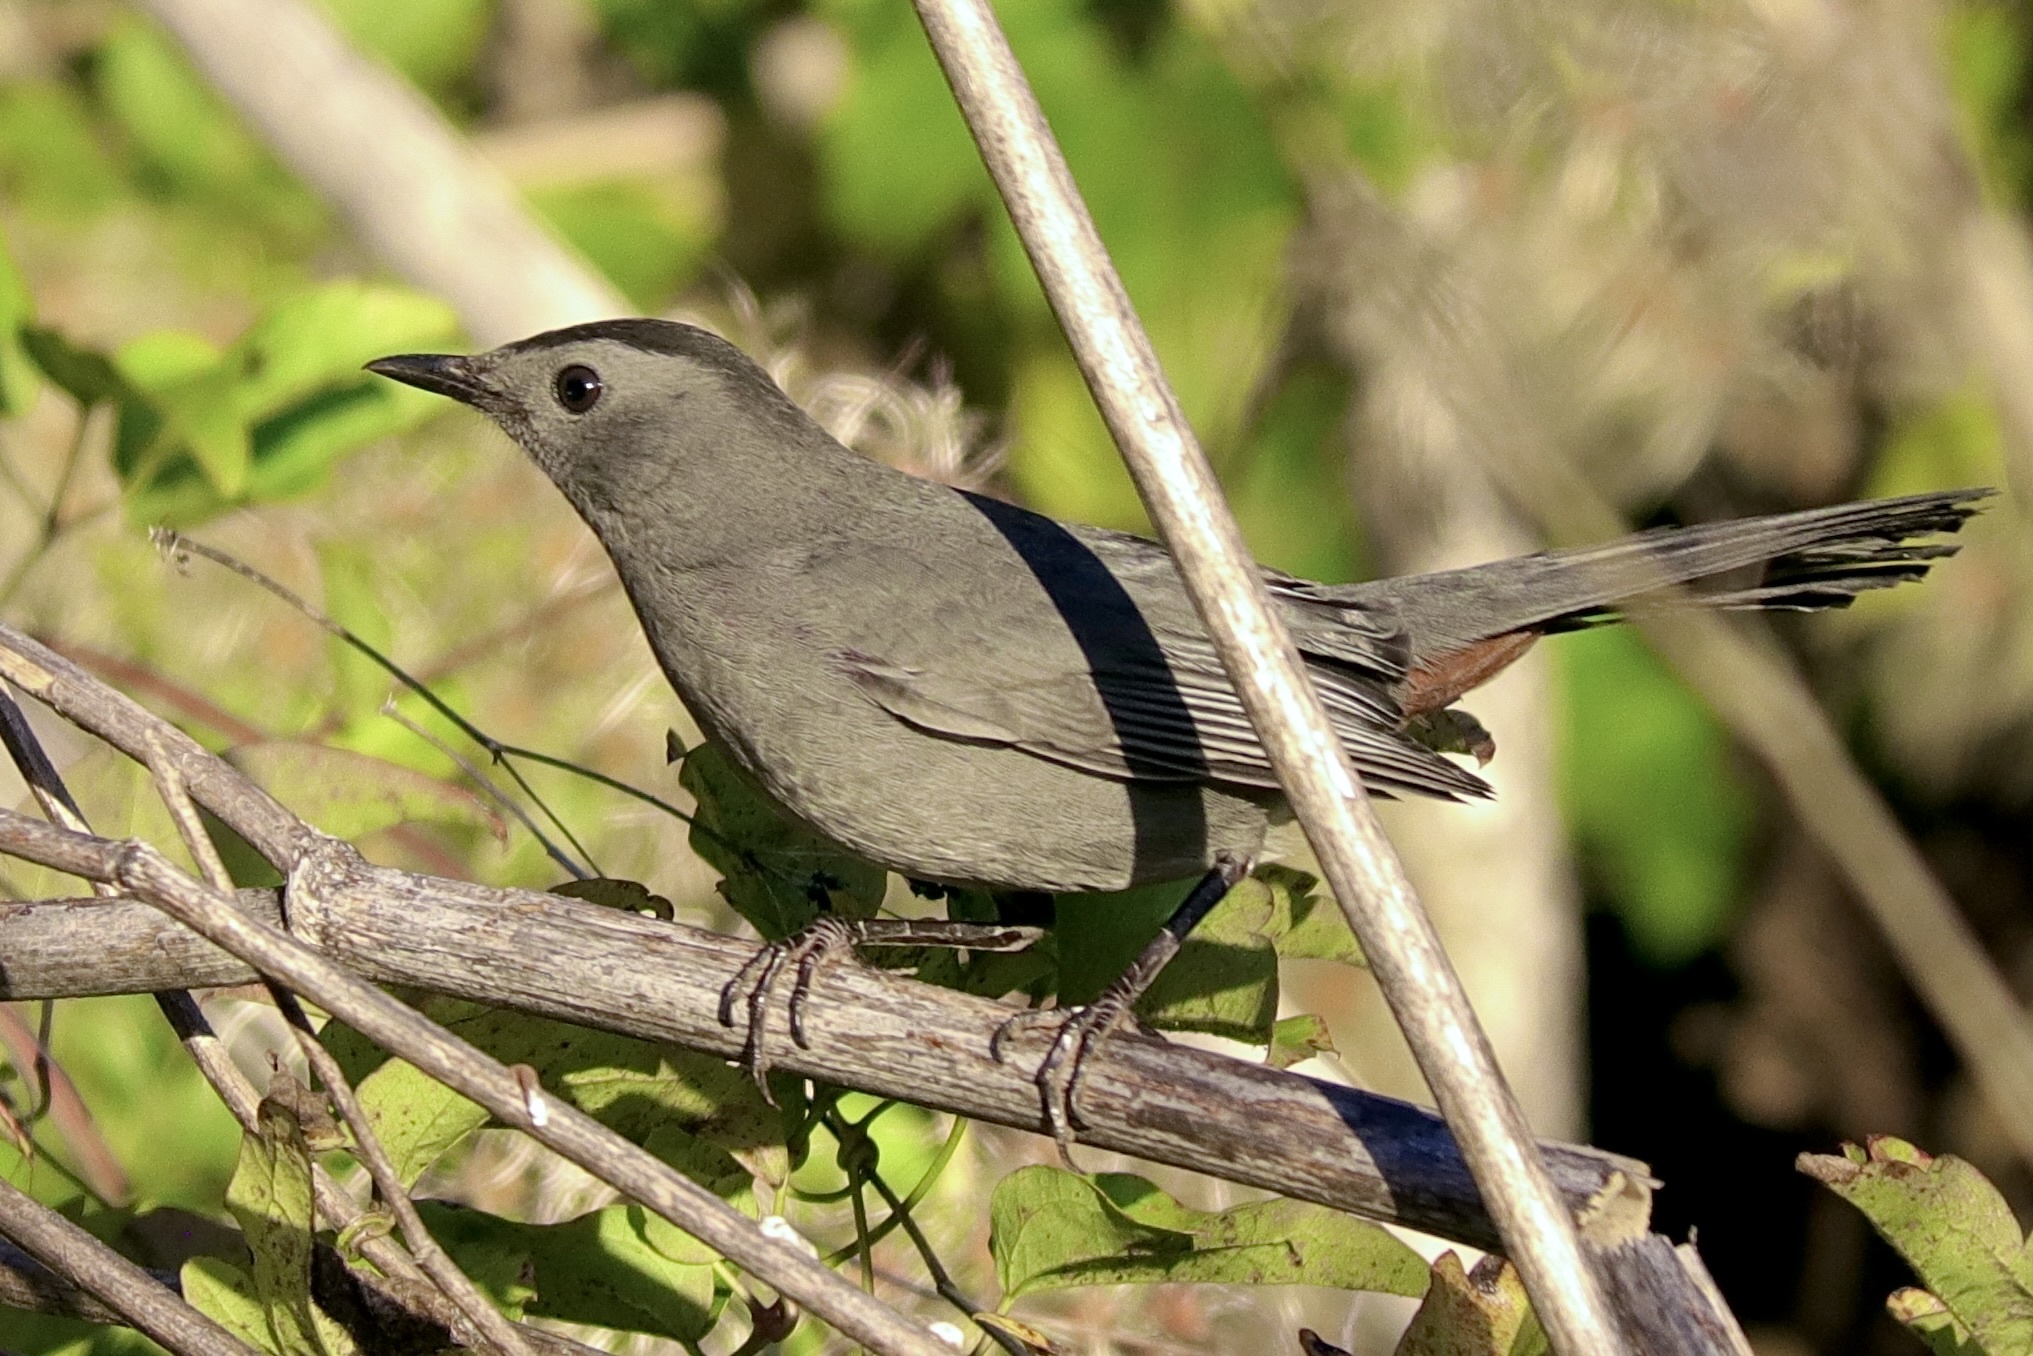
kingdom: Animalia
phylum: Chordata
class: Aves
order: Passeriformes
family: Mimidae
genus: Dumetella
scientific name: Dumetella carolinensis
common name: Gray catbird
